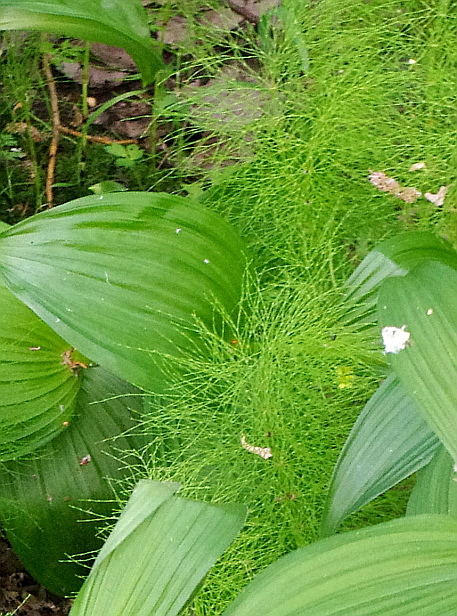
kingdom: Plantae
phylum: Tracheophyta
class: Polypodiopsida
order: Equisetales
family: Equisetaceae
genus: Equisetum
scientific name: Equisetum sylvaticum
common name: Wood horsetail
